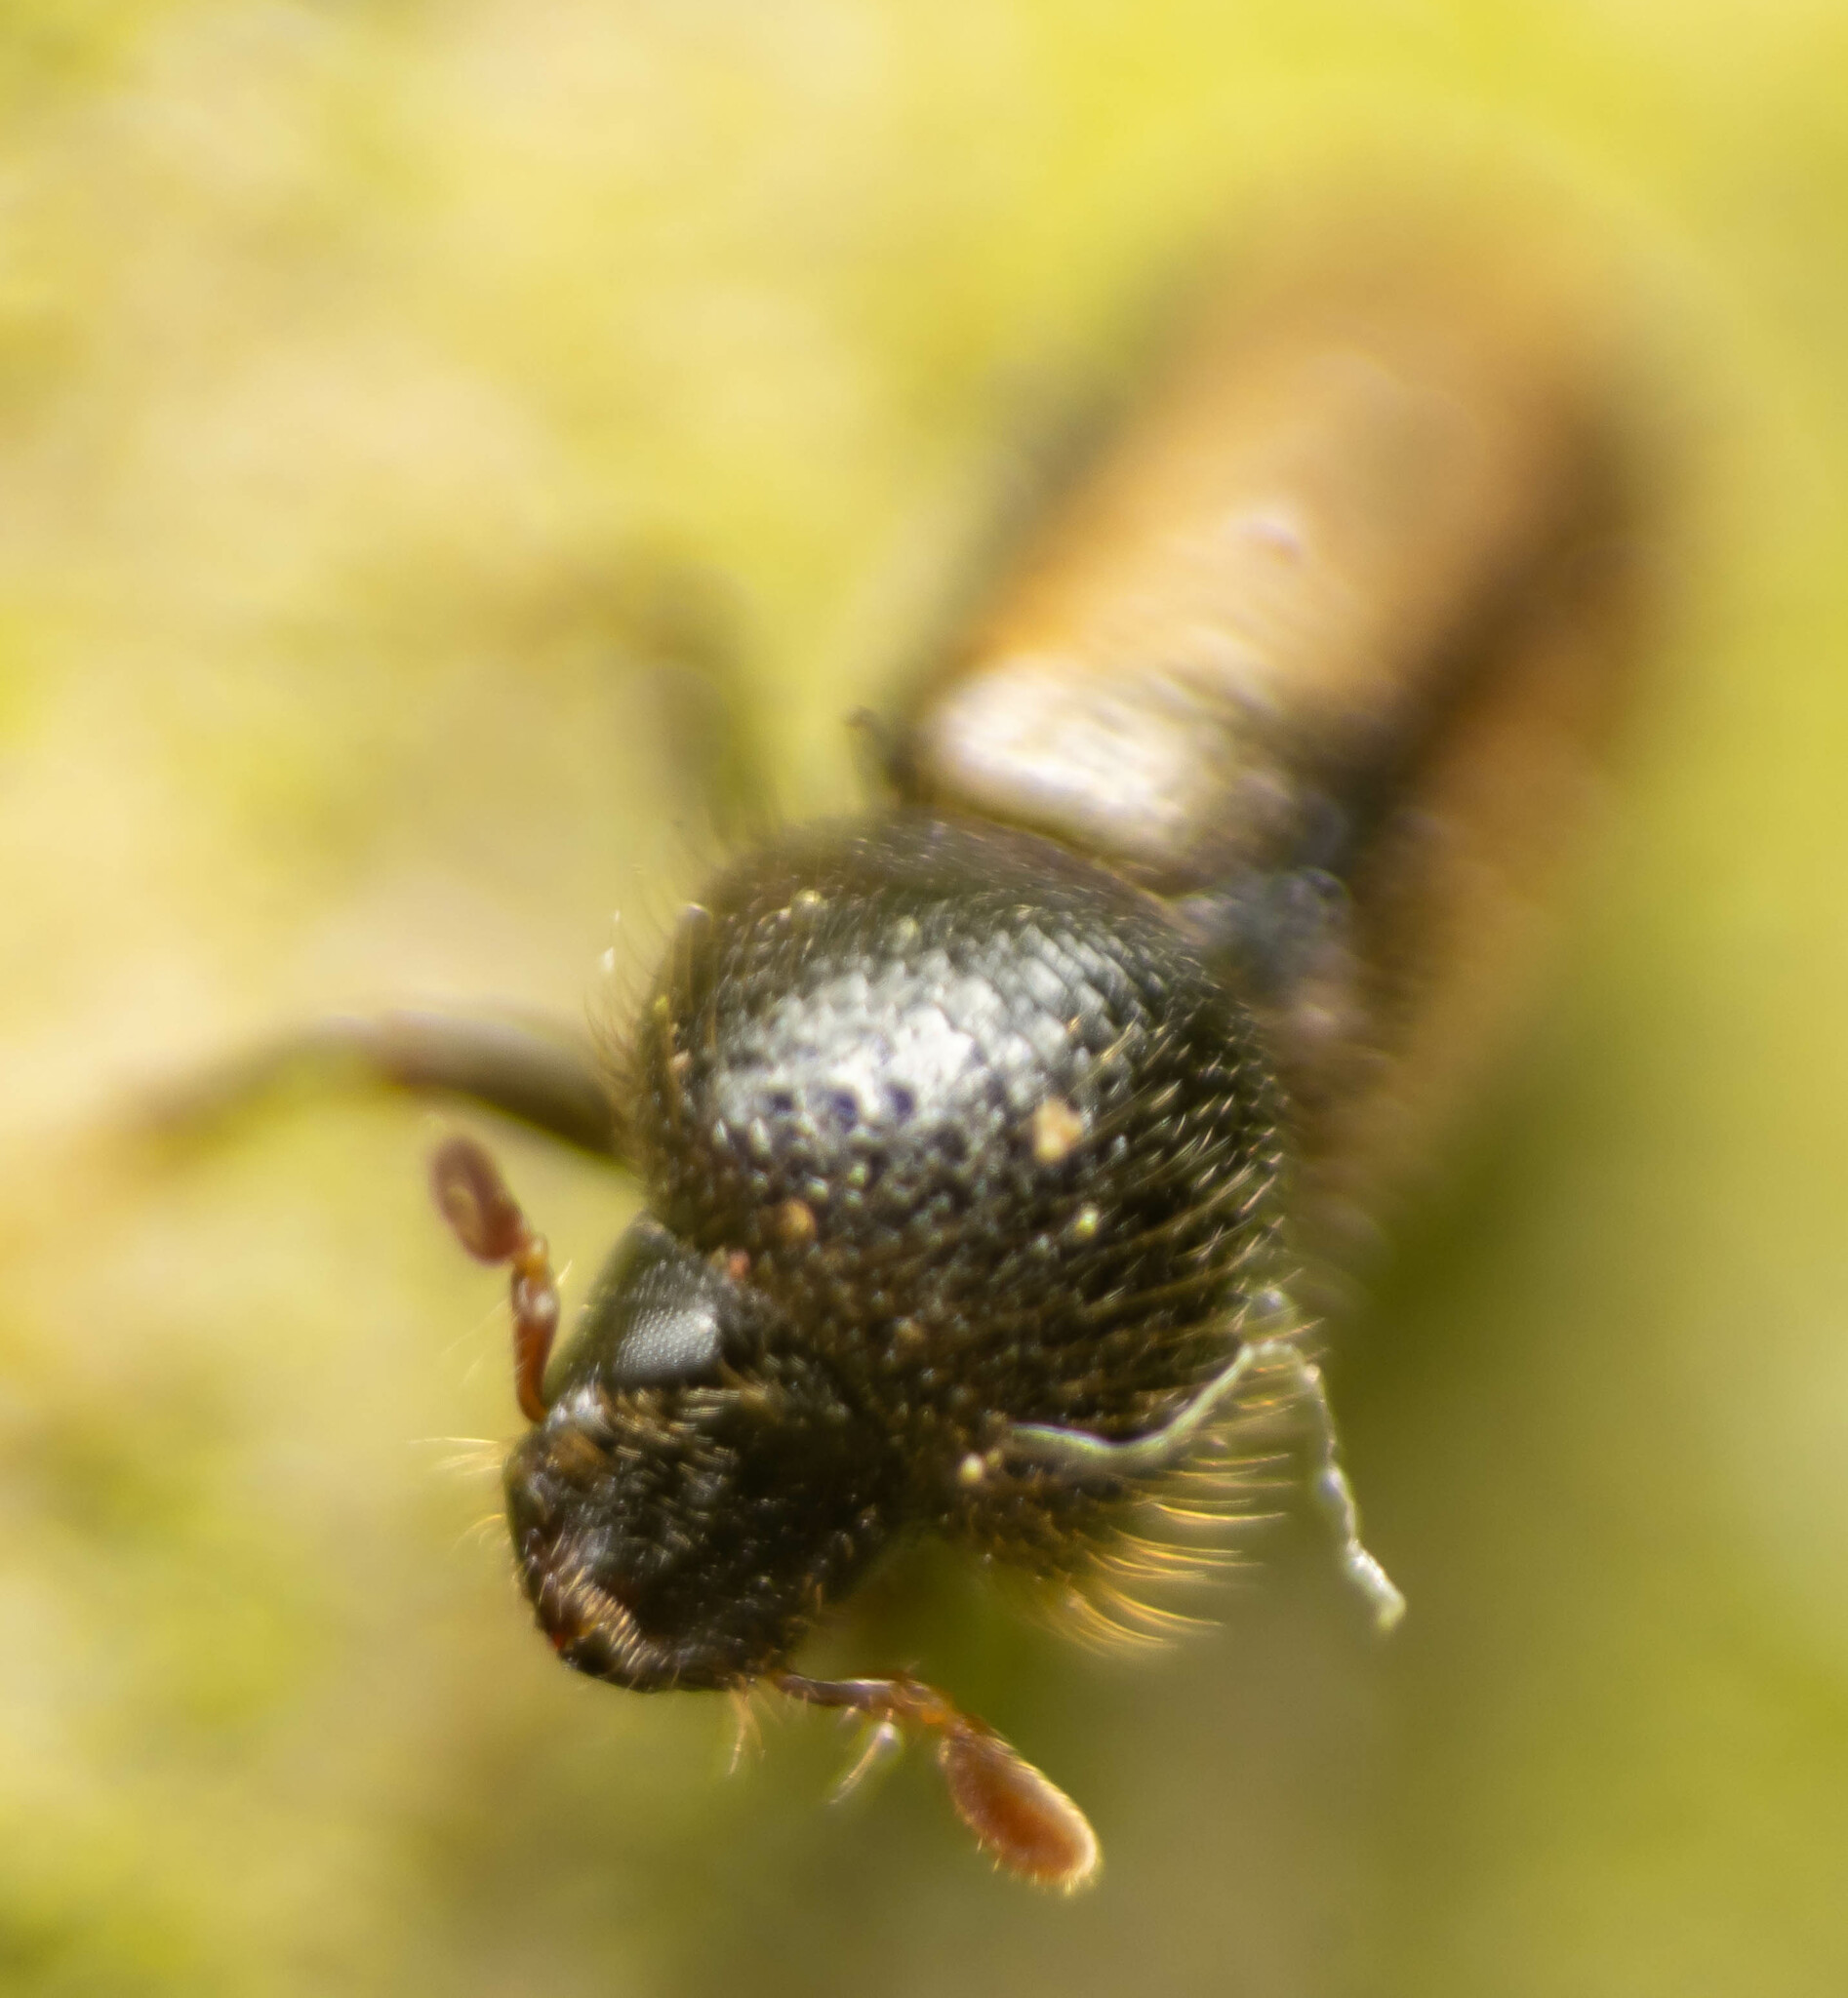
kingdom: Animalia
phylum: Arthropoda
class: Insecta
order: Coleoptera
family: Curculionidae
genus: Trypodendron
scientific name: Trypodendron domesticum
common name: European hardwood ambrosia beetle
